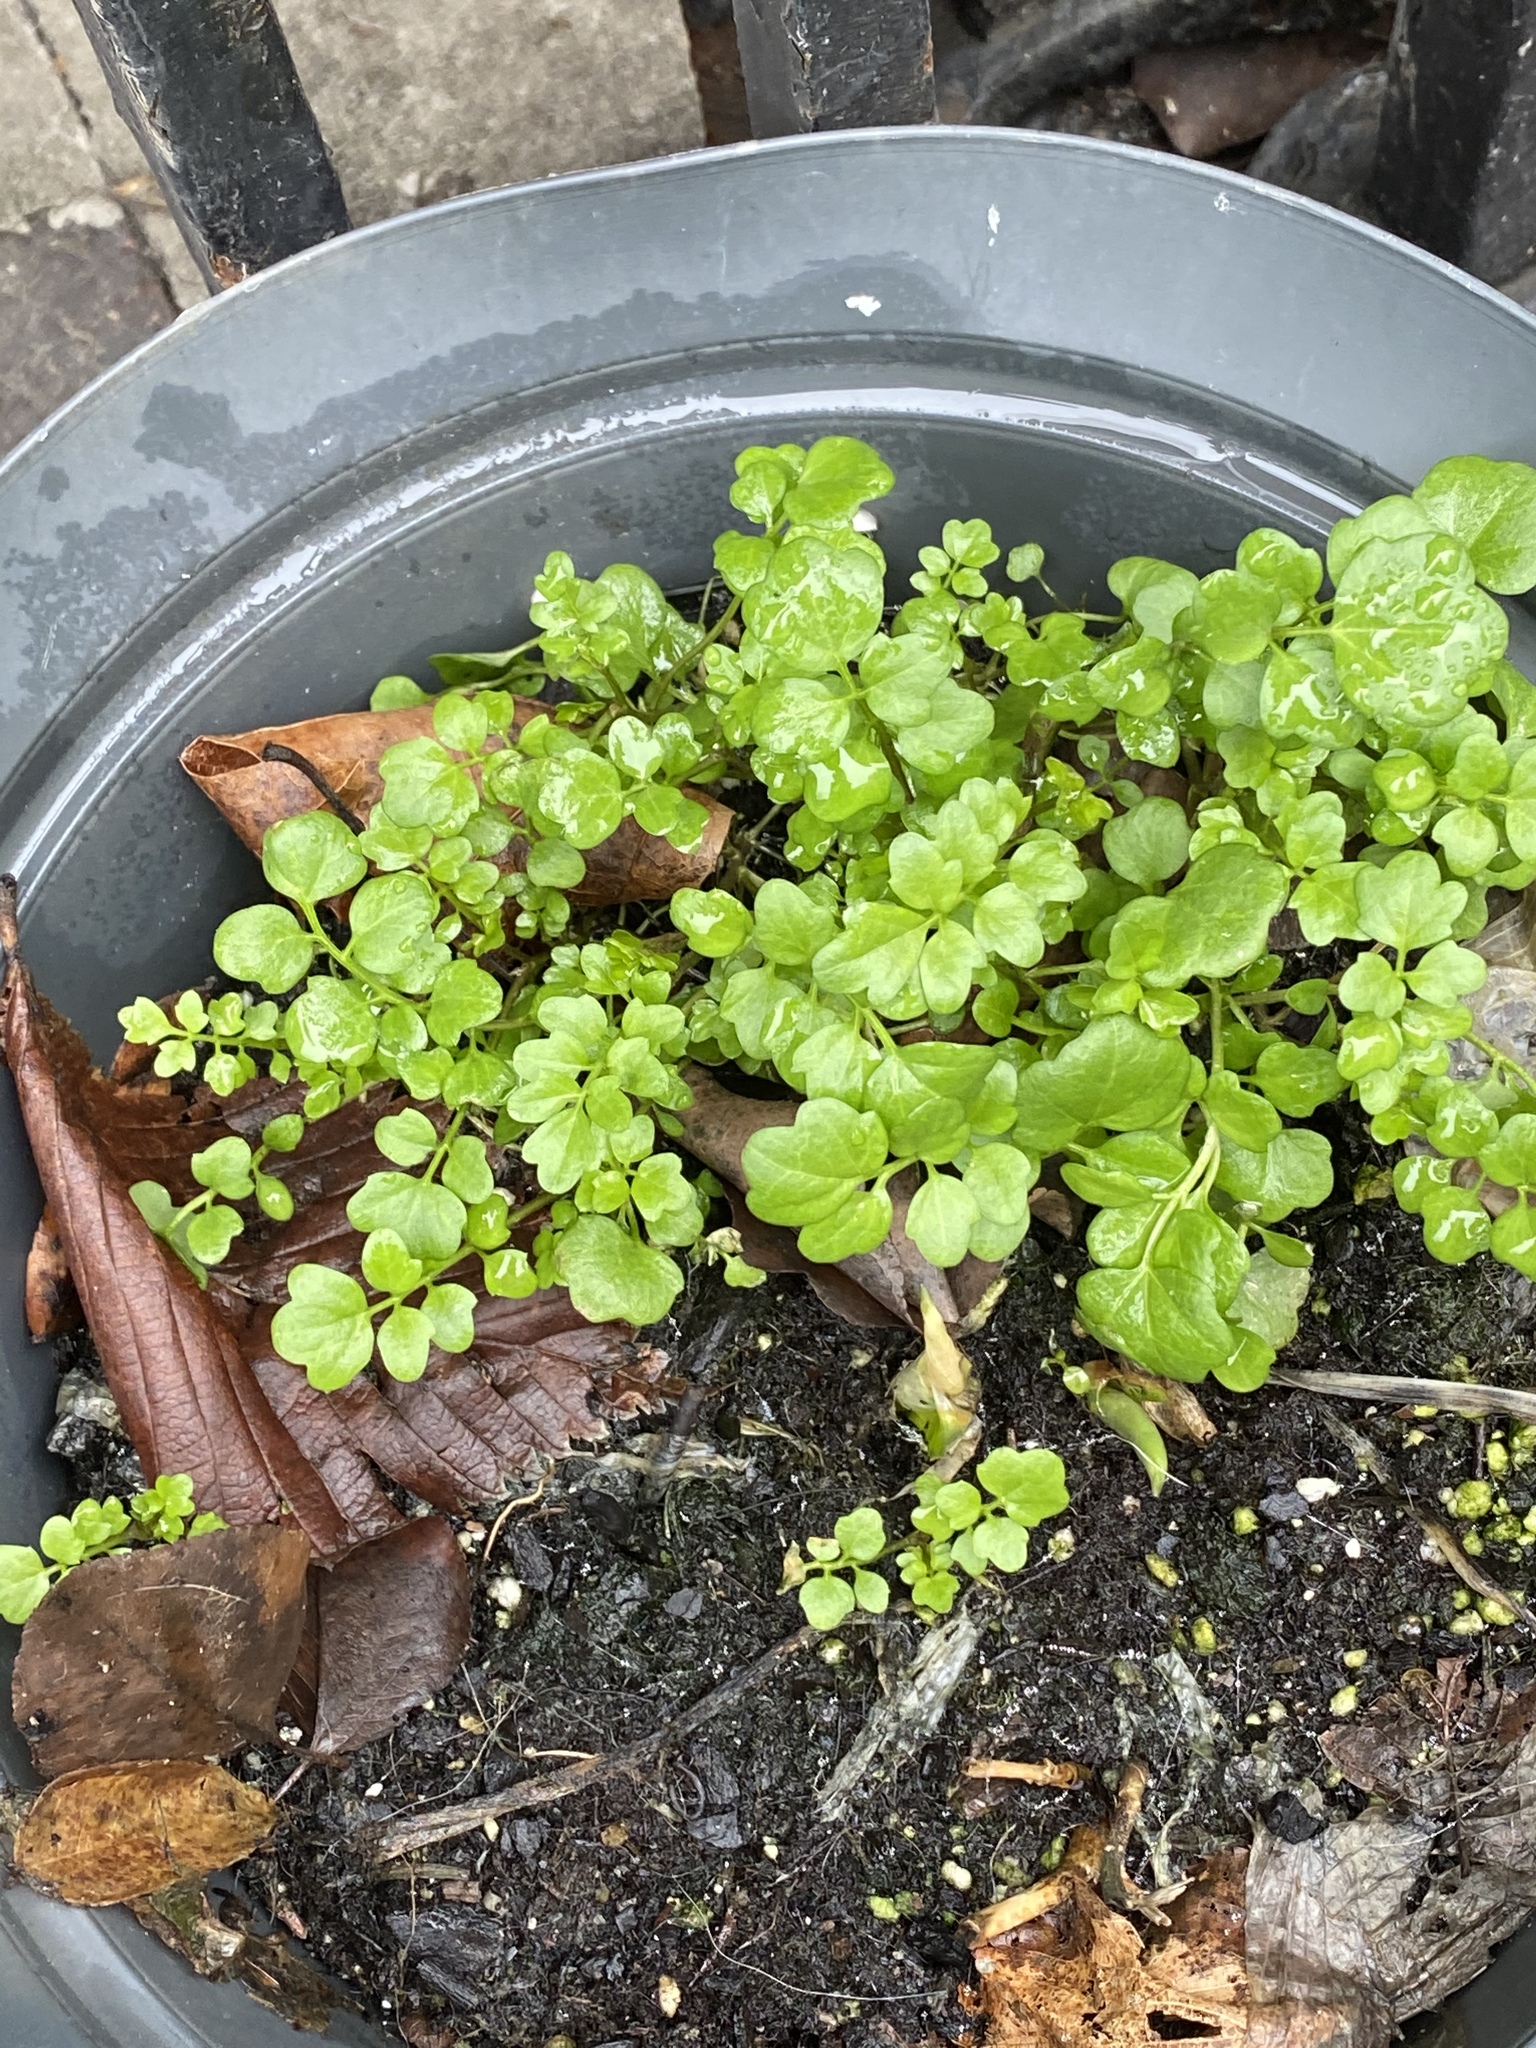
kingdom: Plantae
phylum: Tracheophyta
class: Magnoliopsida
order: Brassicales
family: Brassicaceae
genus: Cardamine
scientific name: Cardamine hirsuta
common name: Hairy bittercress
